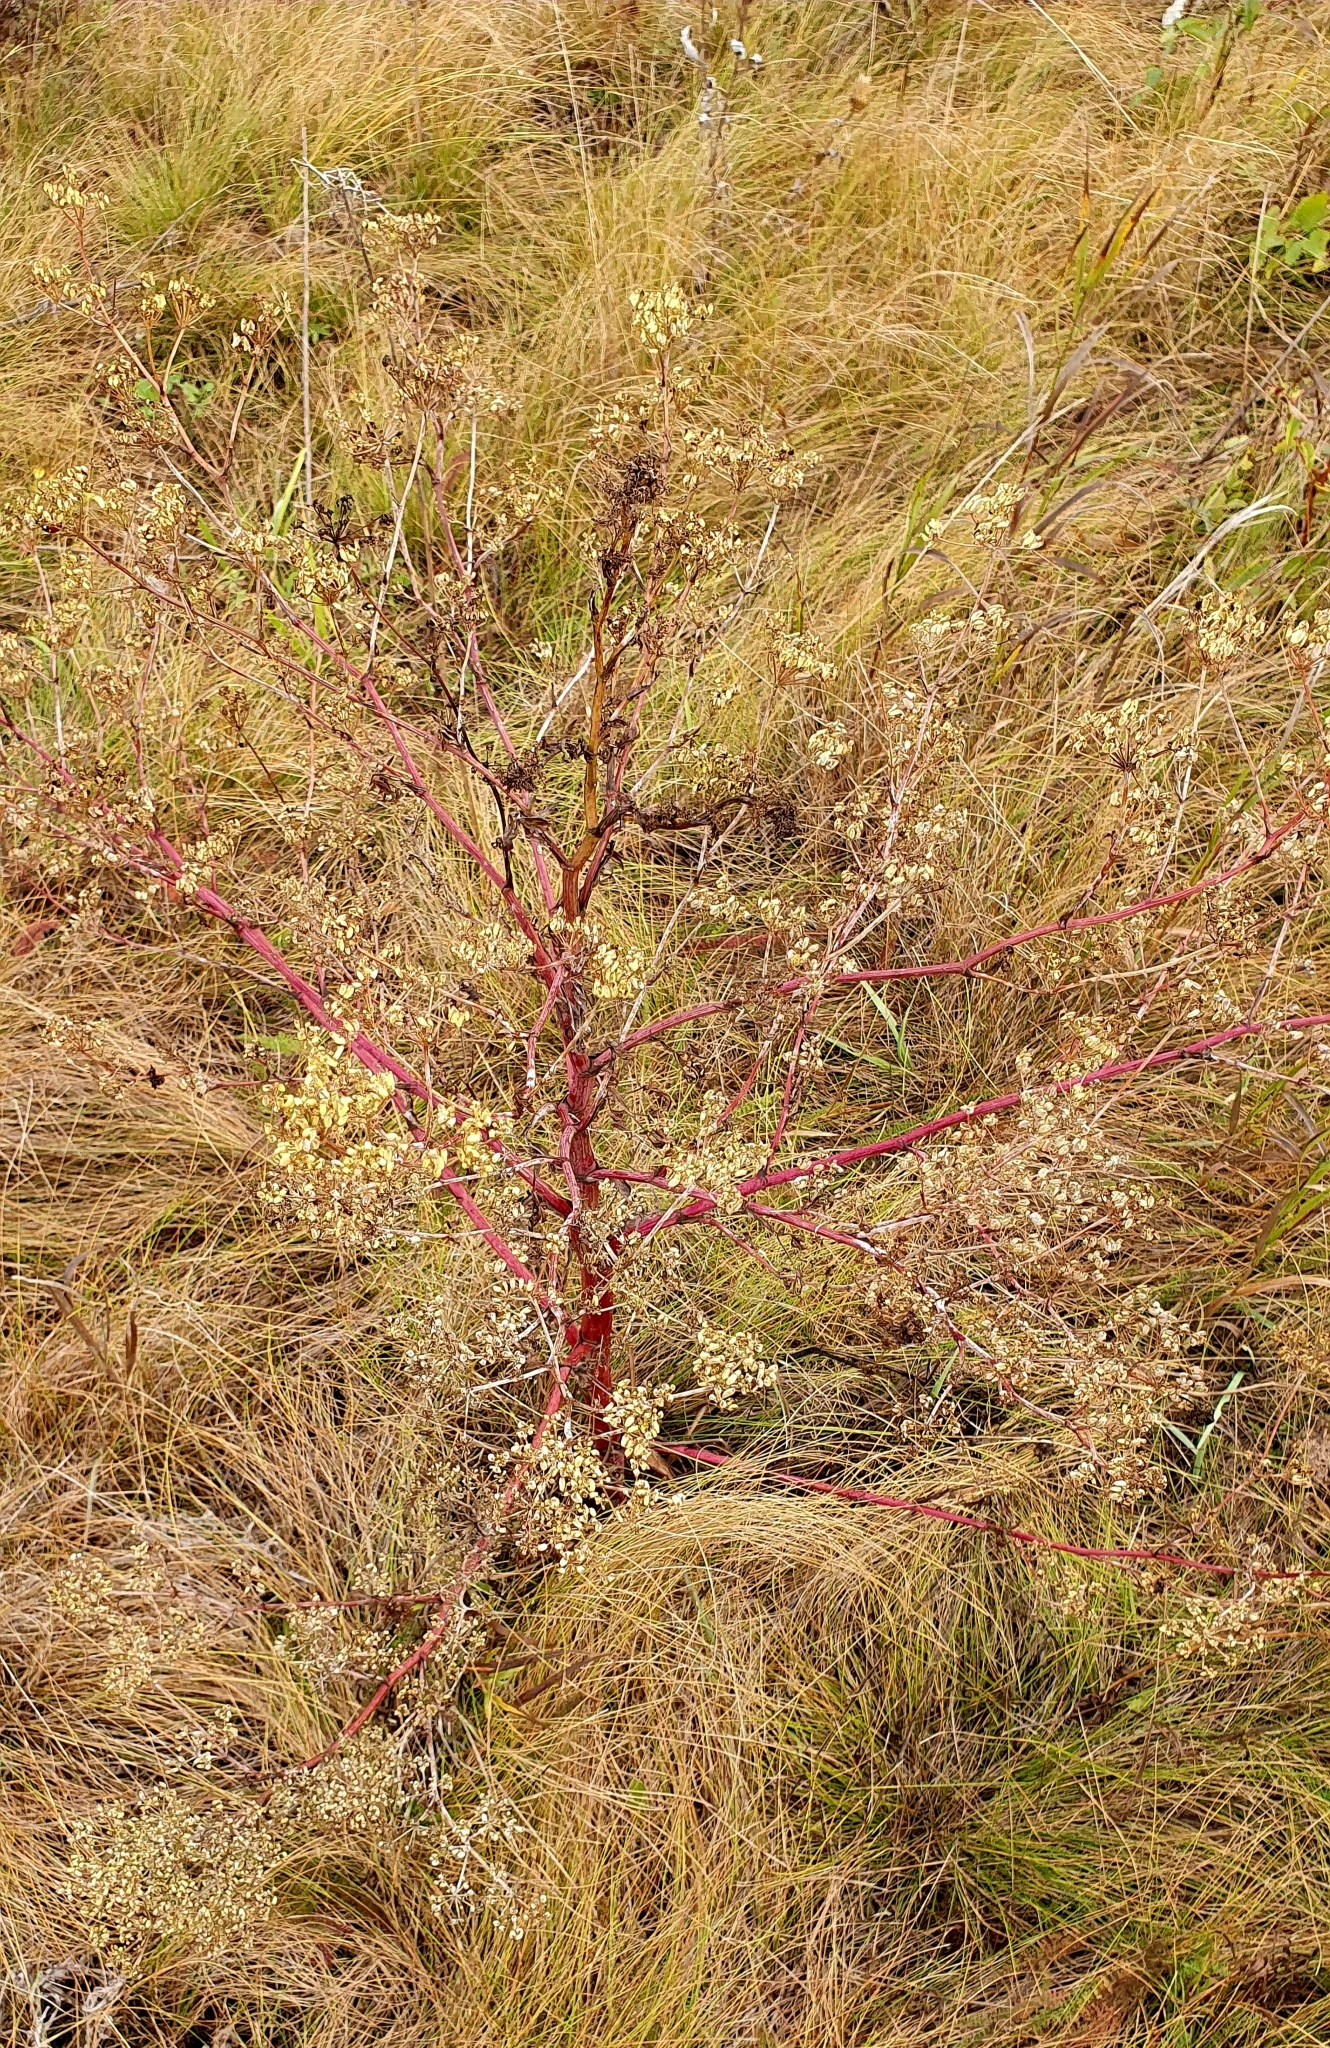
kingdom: Plantae
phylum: Tracheophyta
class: Magnoliopsida
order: Apiales
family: Apiaceae
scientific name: Apiaceae
